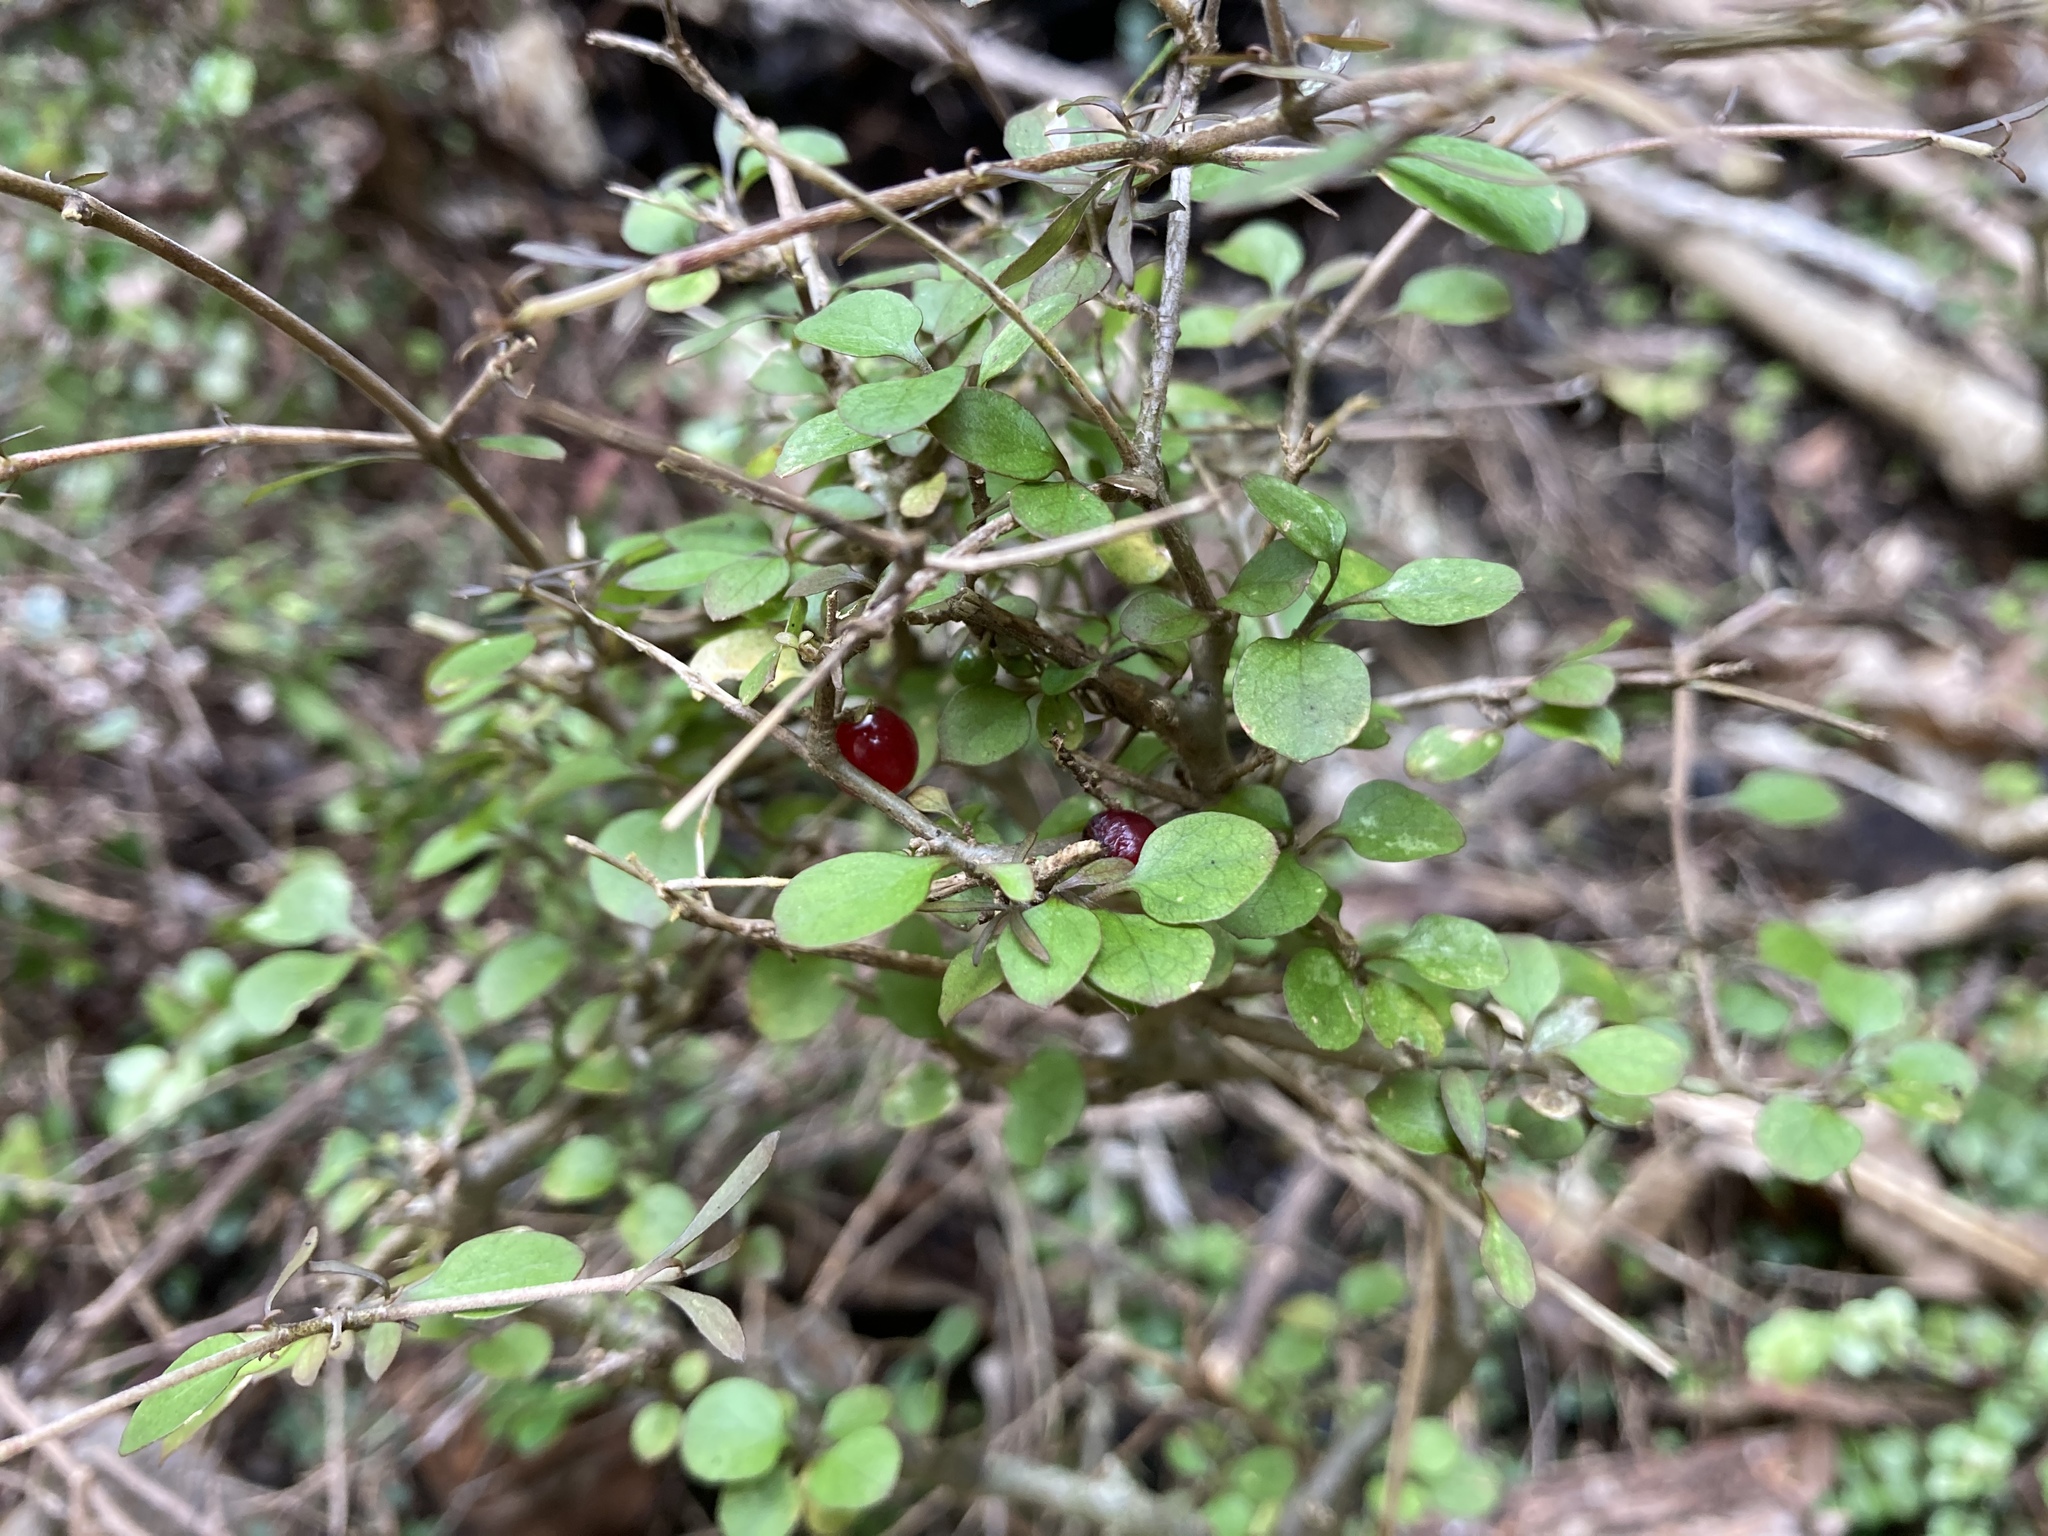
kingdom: Plantae
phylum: Tracheophyta
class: Magnoliopsida
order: Gentianales
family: Rubiaceae
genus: Coprosma
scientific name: Coprosma rhamnoides
